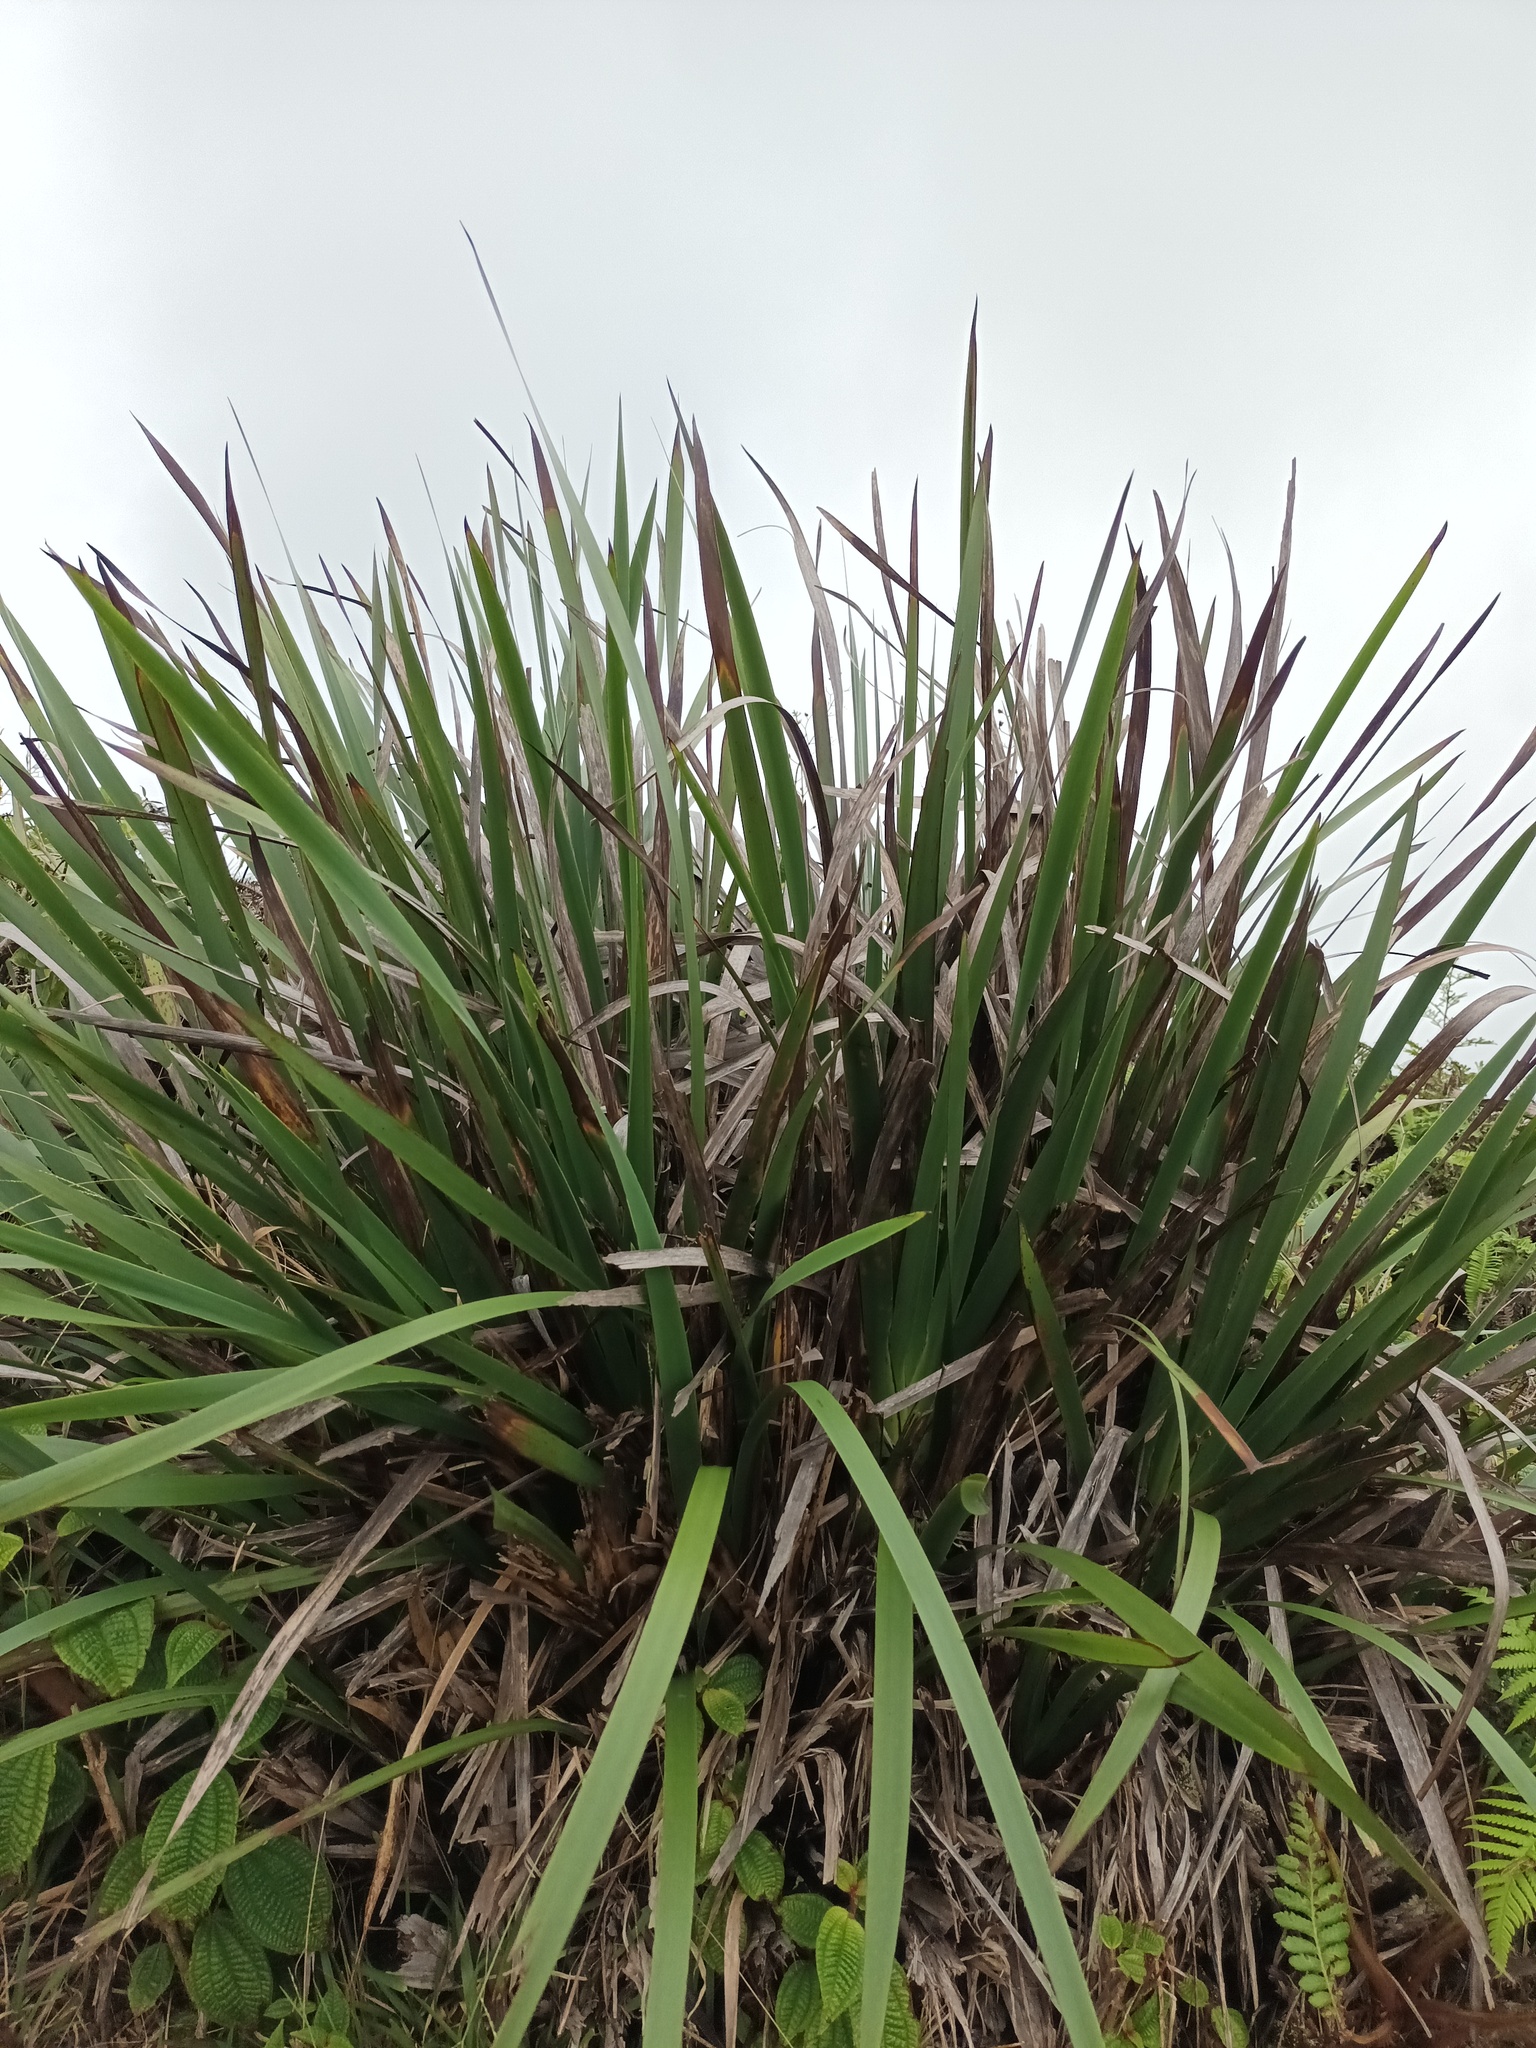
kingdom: Plantae
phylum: Tracheophyta
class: Liliopsida
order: Poales
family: Cyperaceae
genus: Machaerina
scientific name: Machaerina angustifolia
